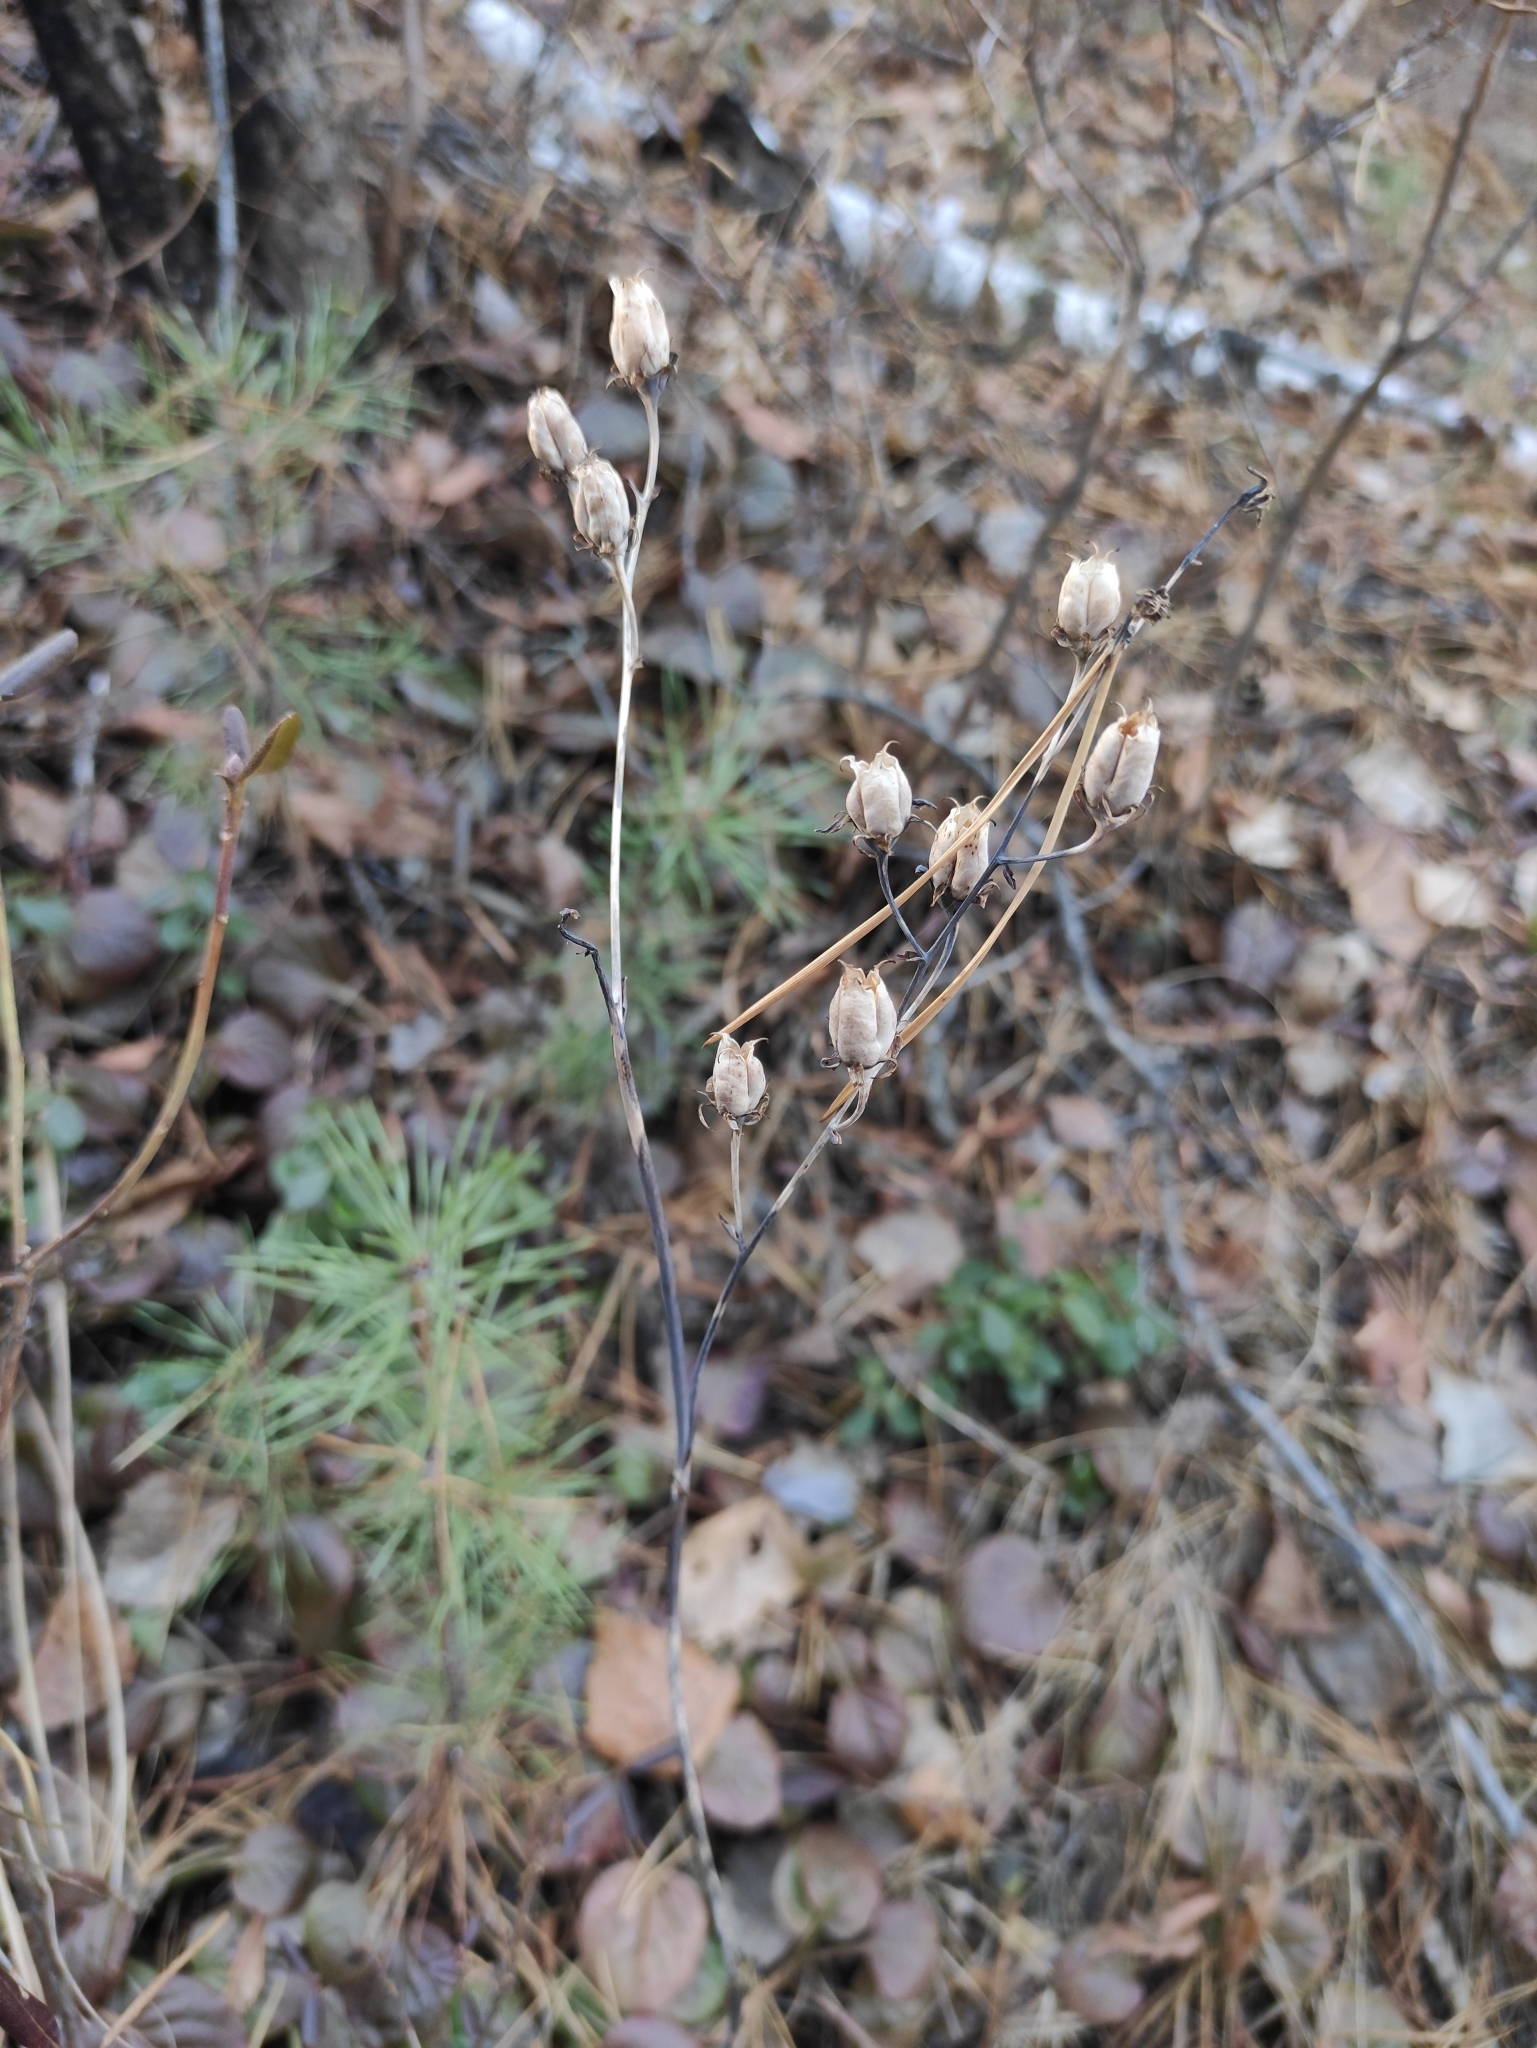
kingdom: Plantae
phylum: Tracheophyta
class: Liliopsida
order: Liliales
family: Melanthiaceae
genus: Anticlea
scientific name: Anticlea sibirica
